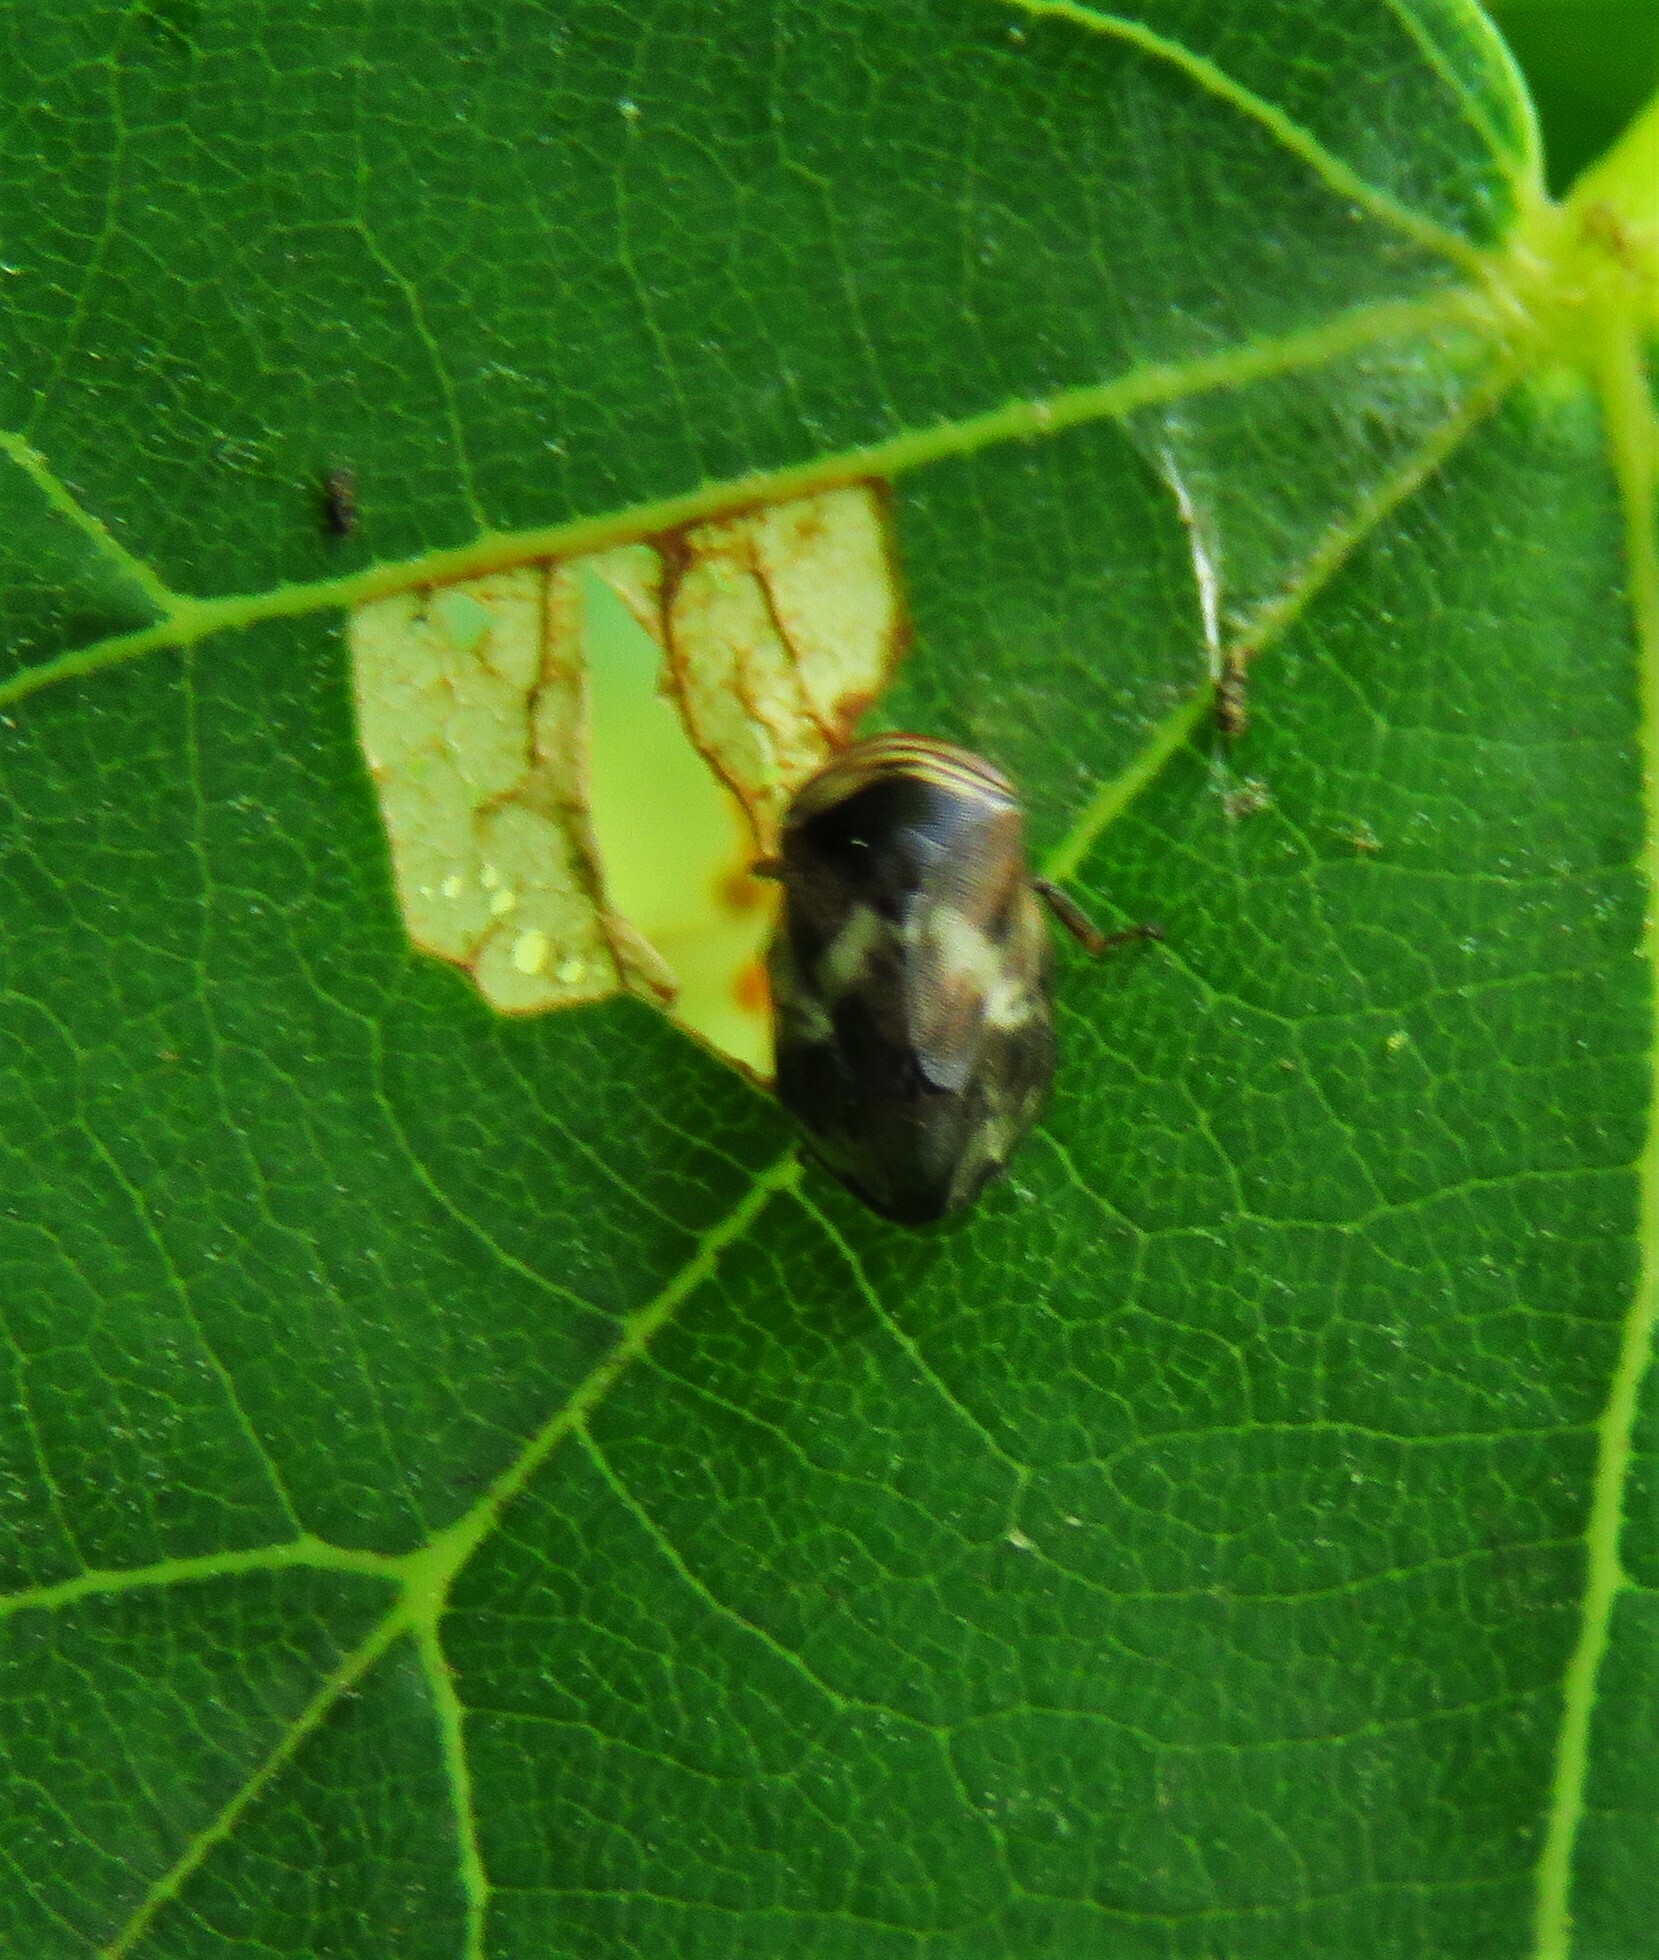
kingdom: Animalia
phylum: Arthropoda
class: Insecta
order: Hemiptera
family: Clastopteridae
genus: Clastoptera
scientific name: Clastoptera obtusa
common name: Alder spittlebug
